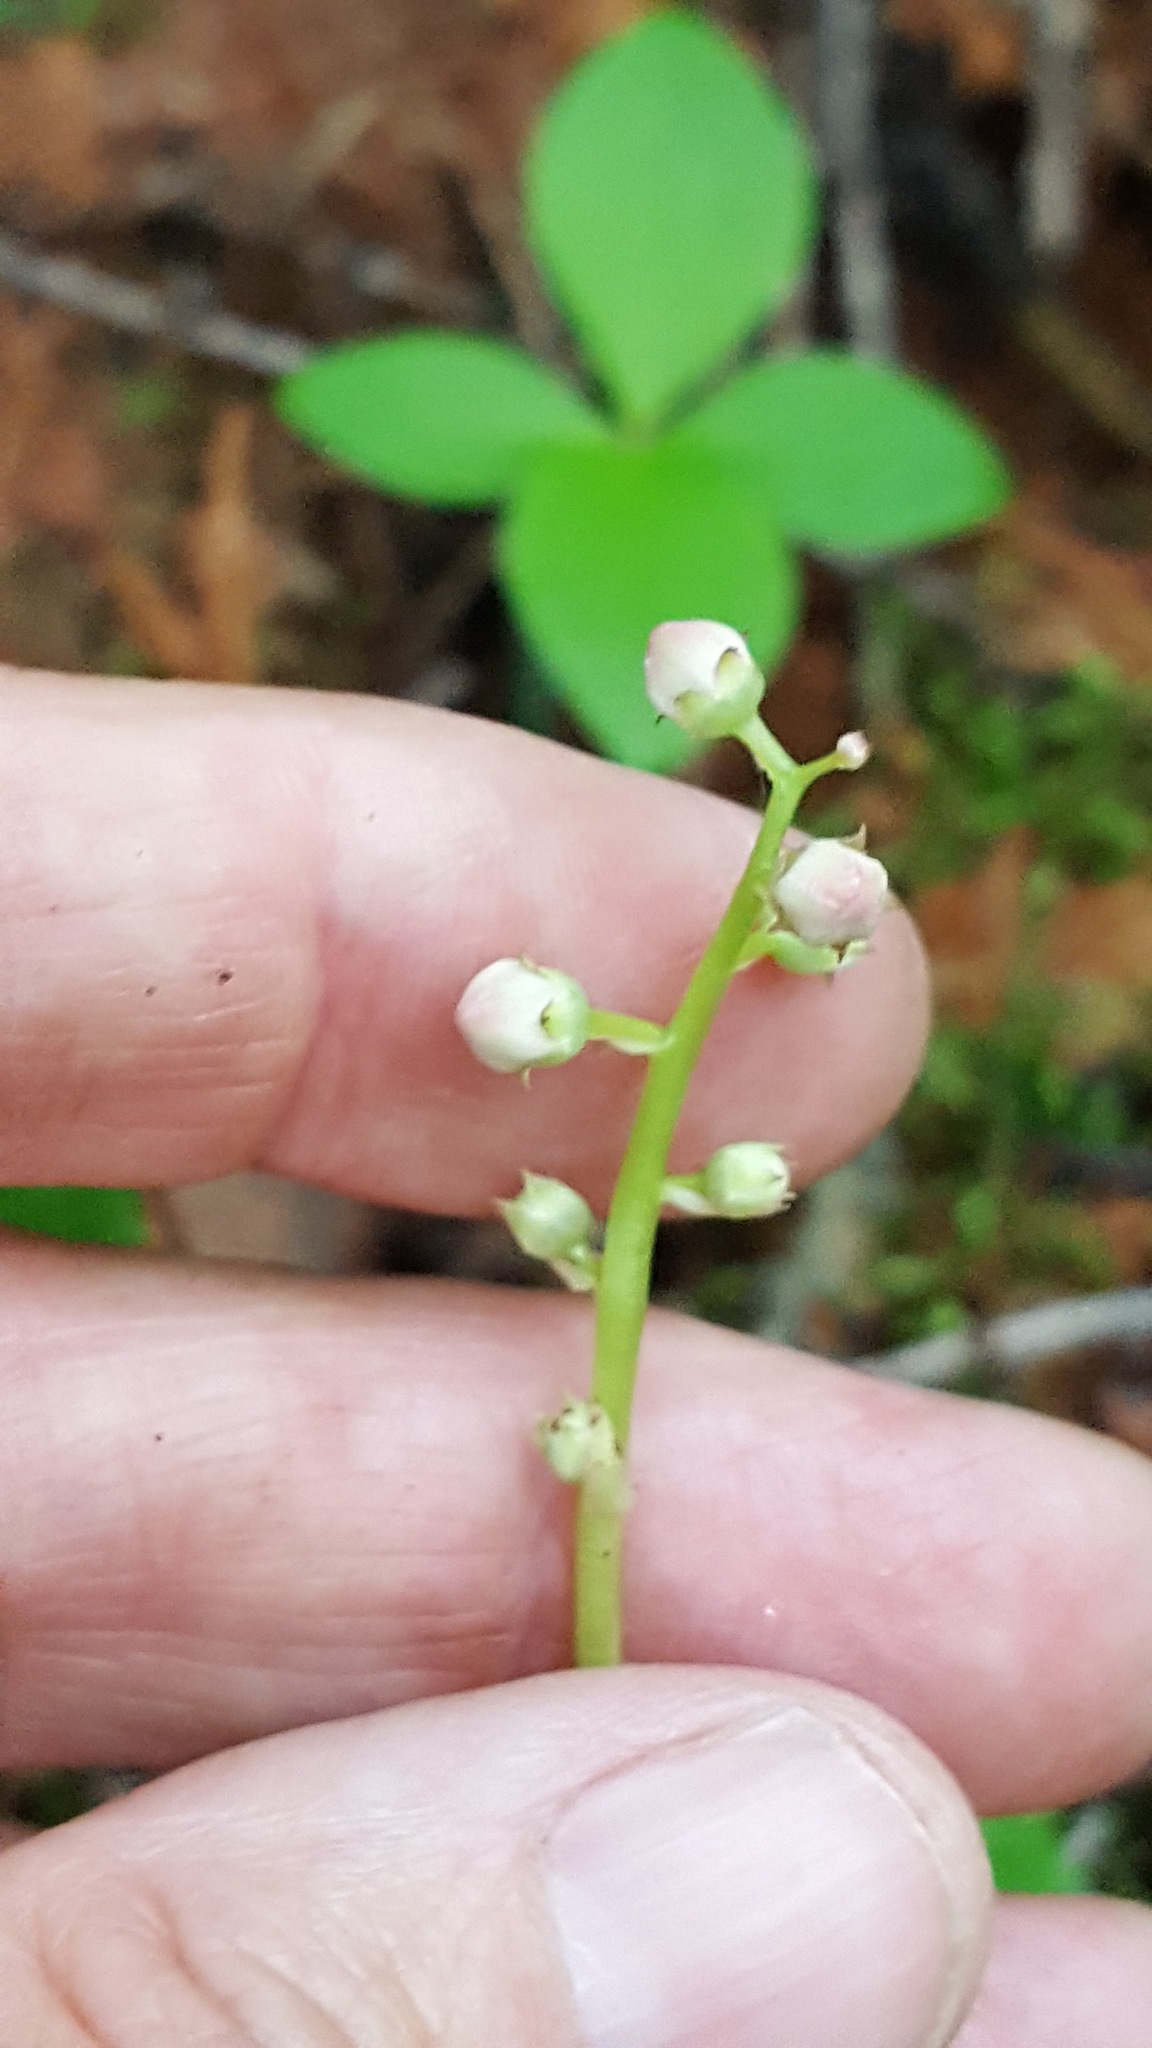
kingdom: Plantae
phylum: Tracheophyta
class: Magnoliopsida
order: Ericales
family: Ericaceae
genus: Pyrola
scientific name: Pyrola asarifolia
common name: Bog wintergreen
